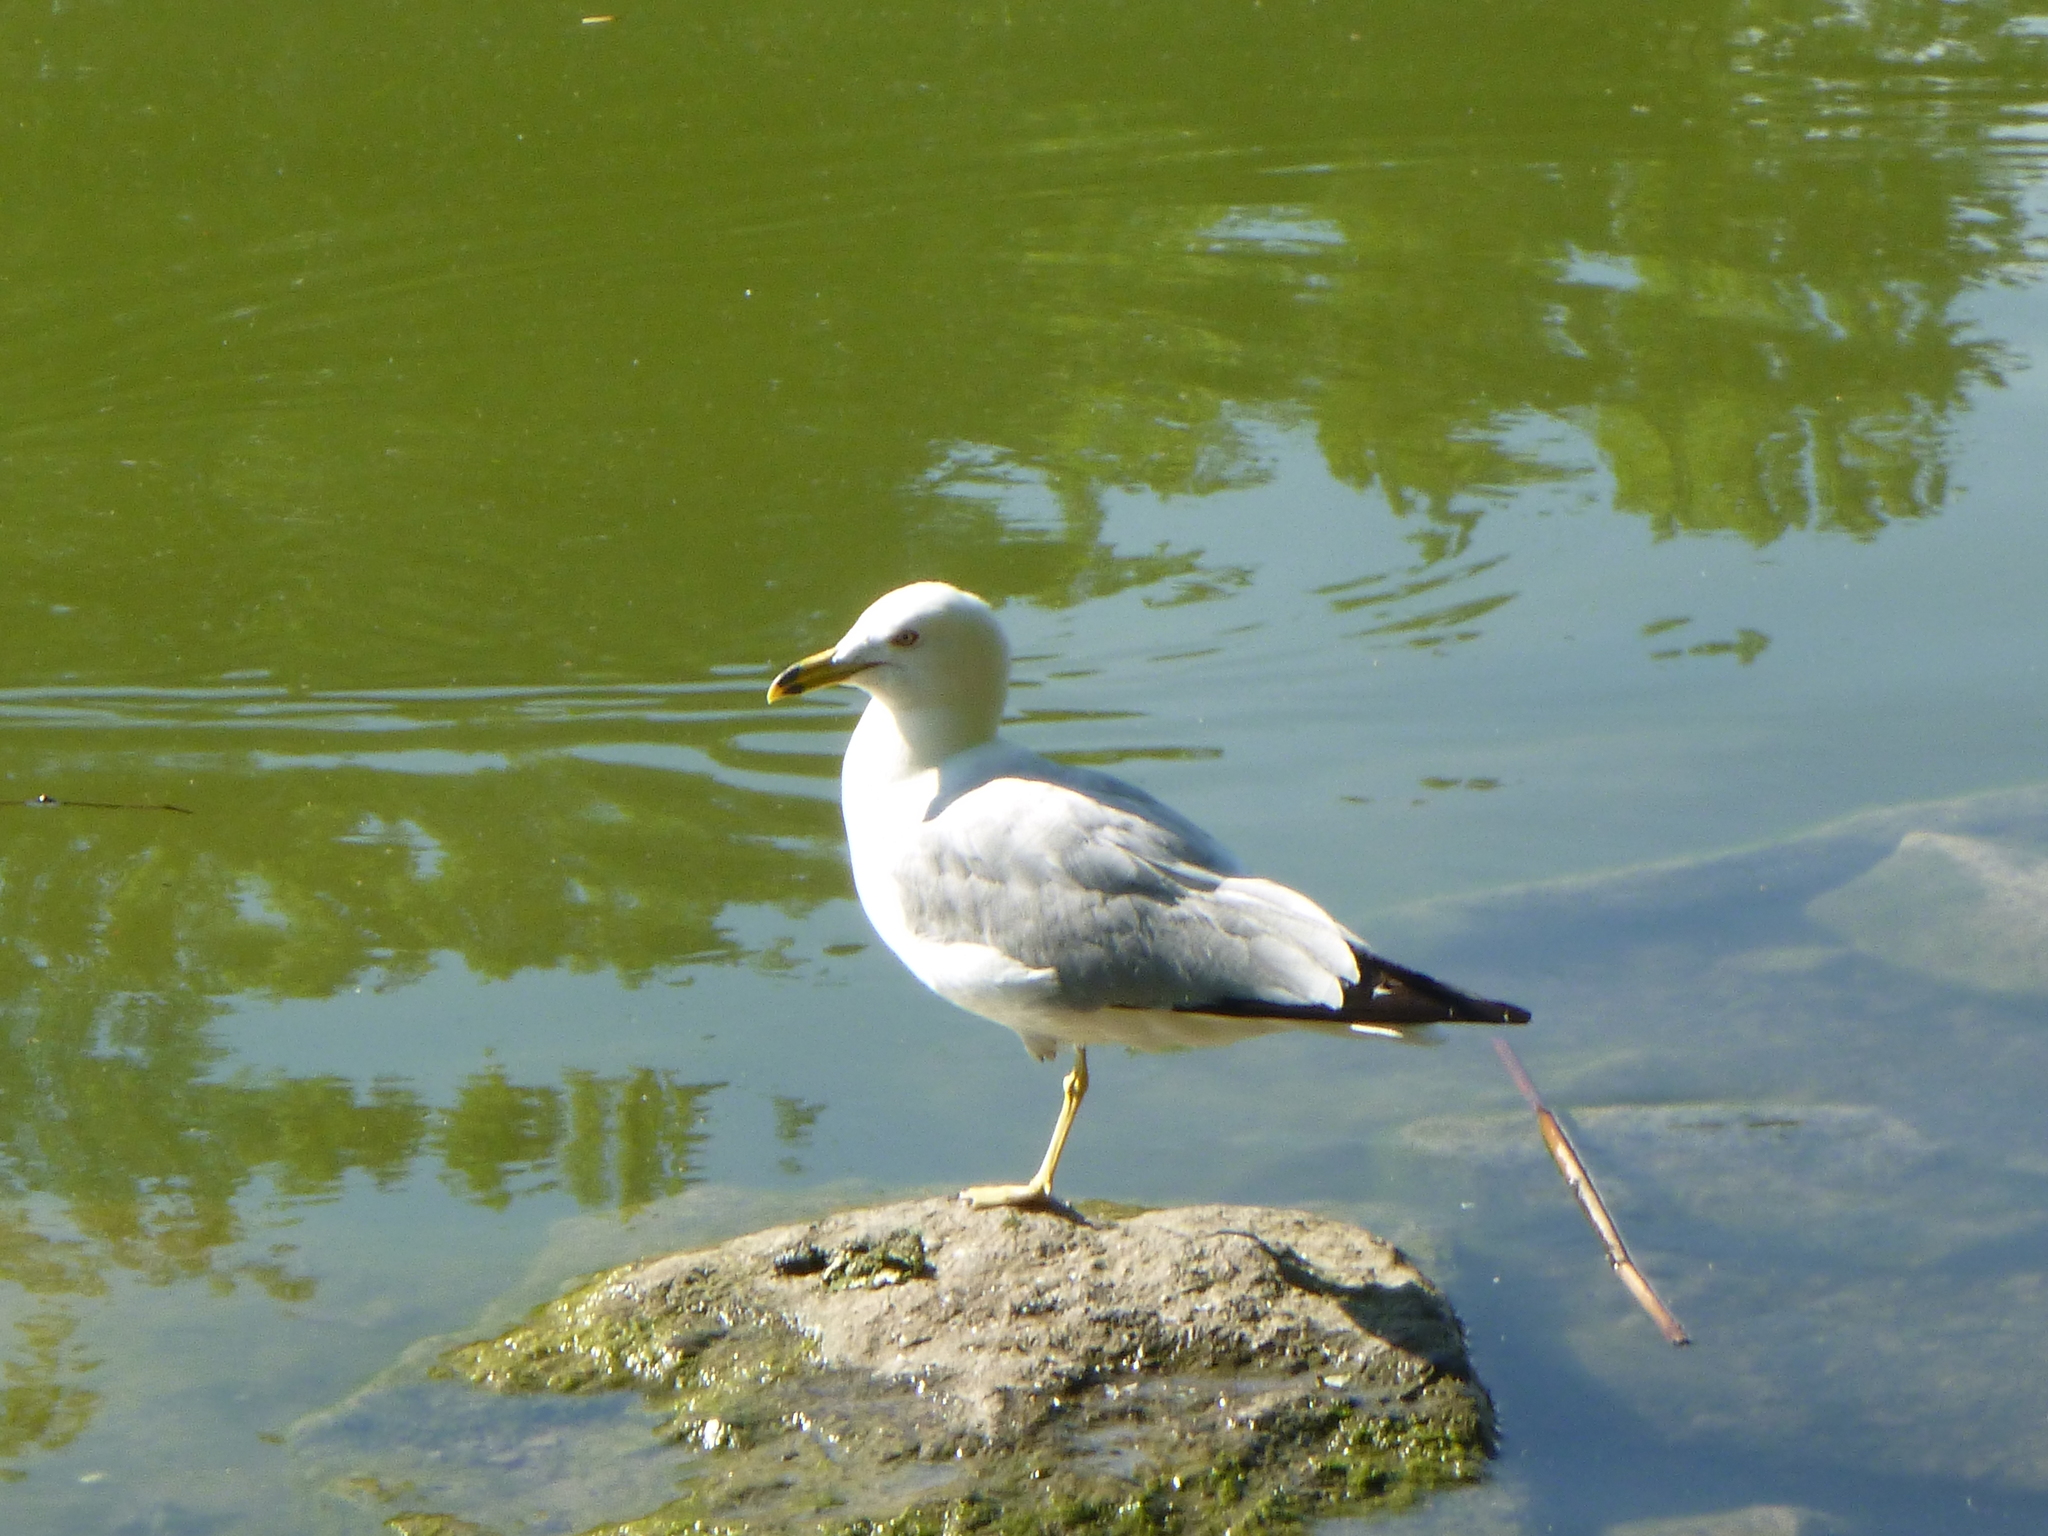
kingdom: Animalia
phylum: Chordata
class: Aves
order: Charadriiformes
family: Laridae
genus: Larus
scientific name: Larus delawarensis
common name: Ring-billed gull
